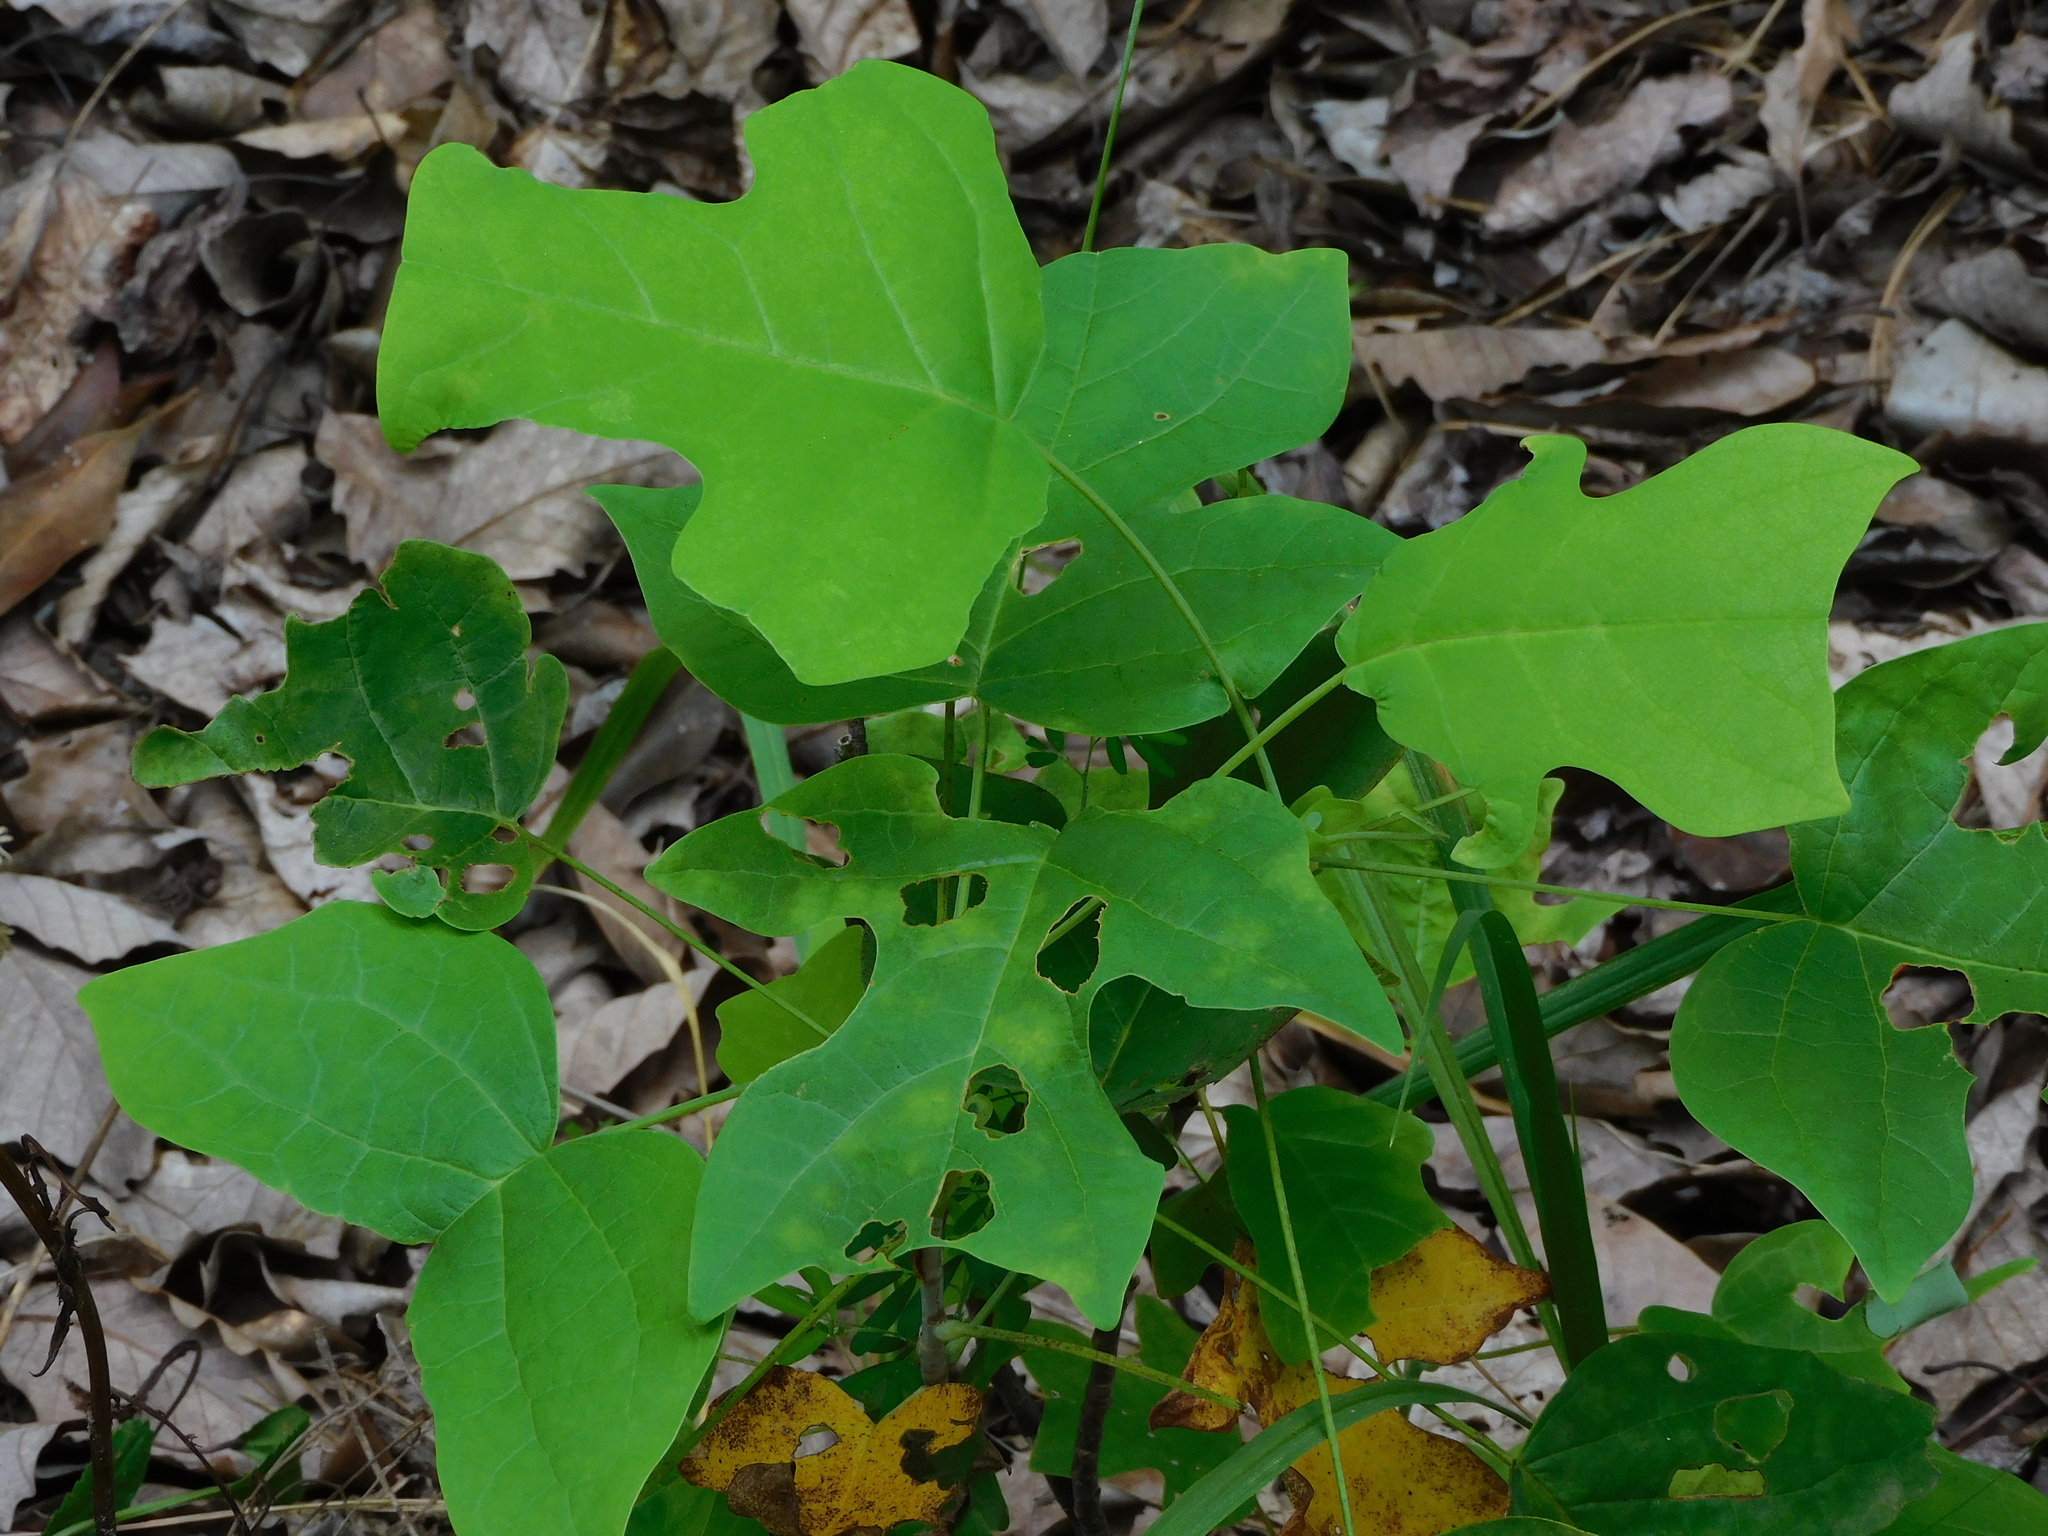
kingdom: Plantae
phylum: Tracheophyta
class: Magnoliopsida
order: Magnoliales
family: Magnoliaceae
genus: Liriodendron
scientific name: Liriodendron tulipifera
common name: Tulip tree
